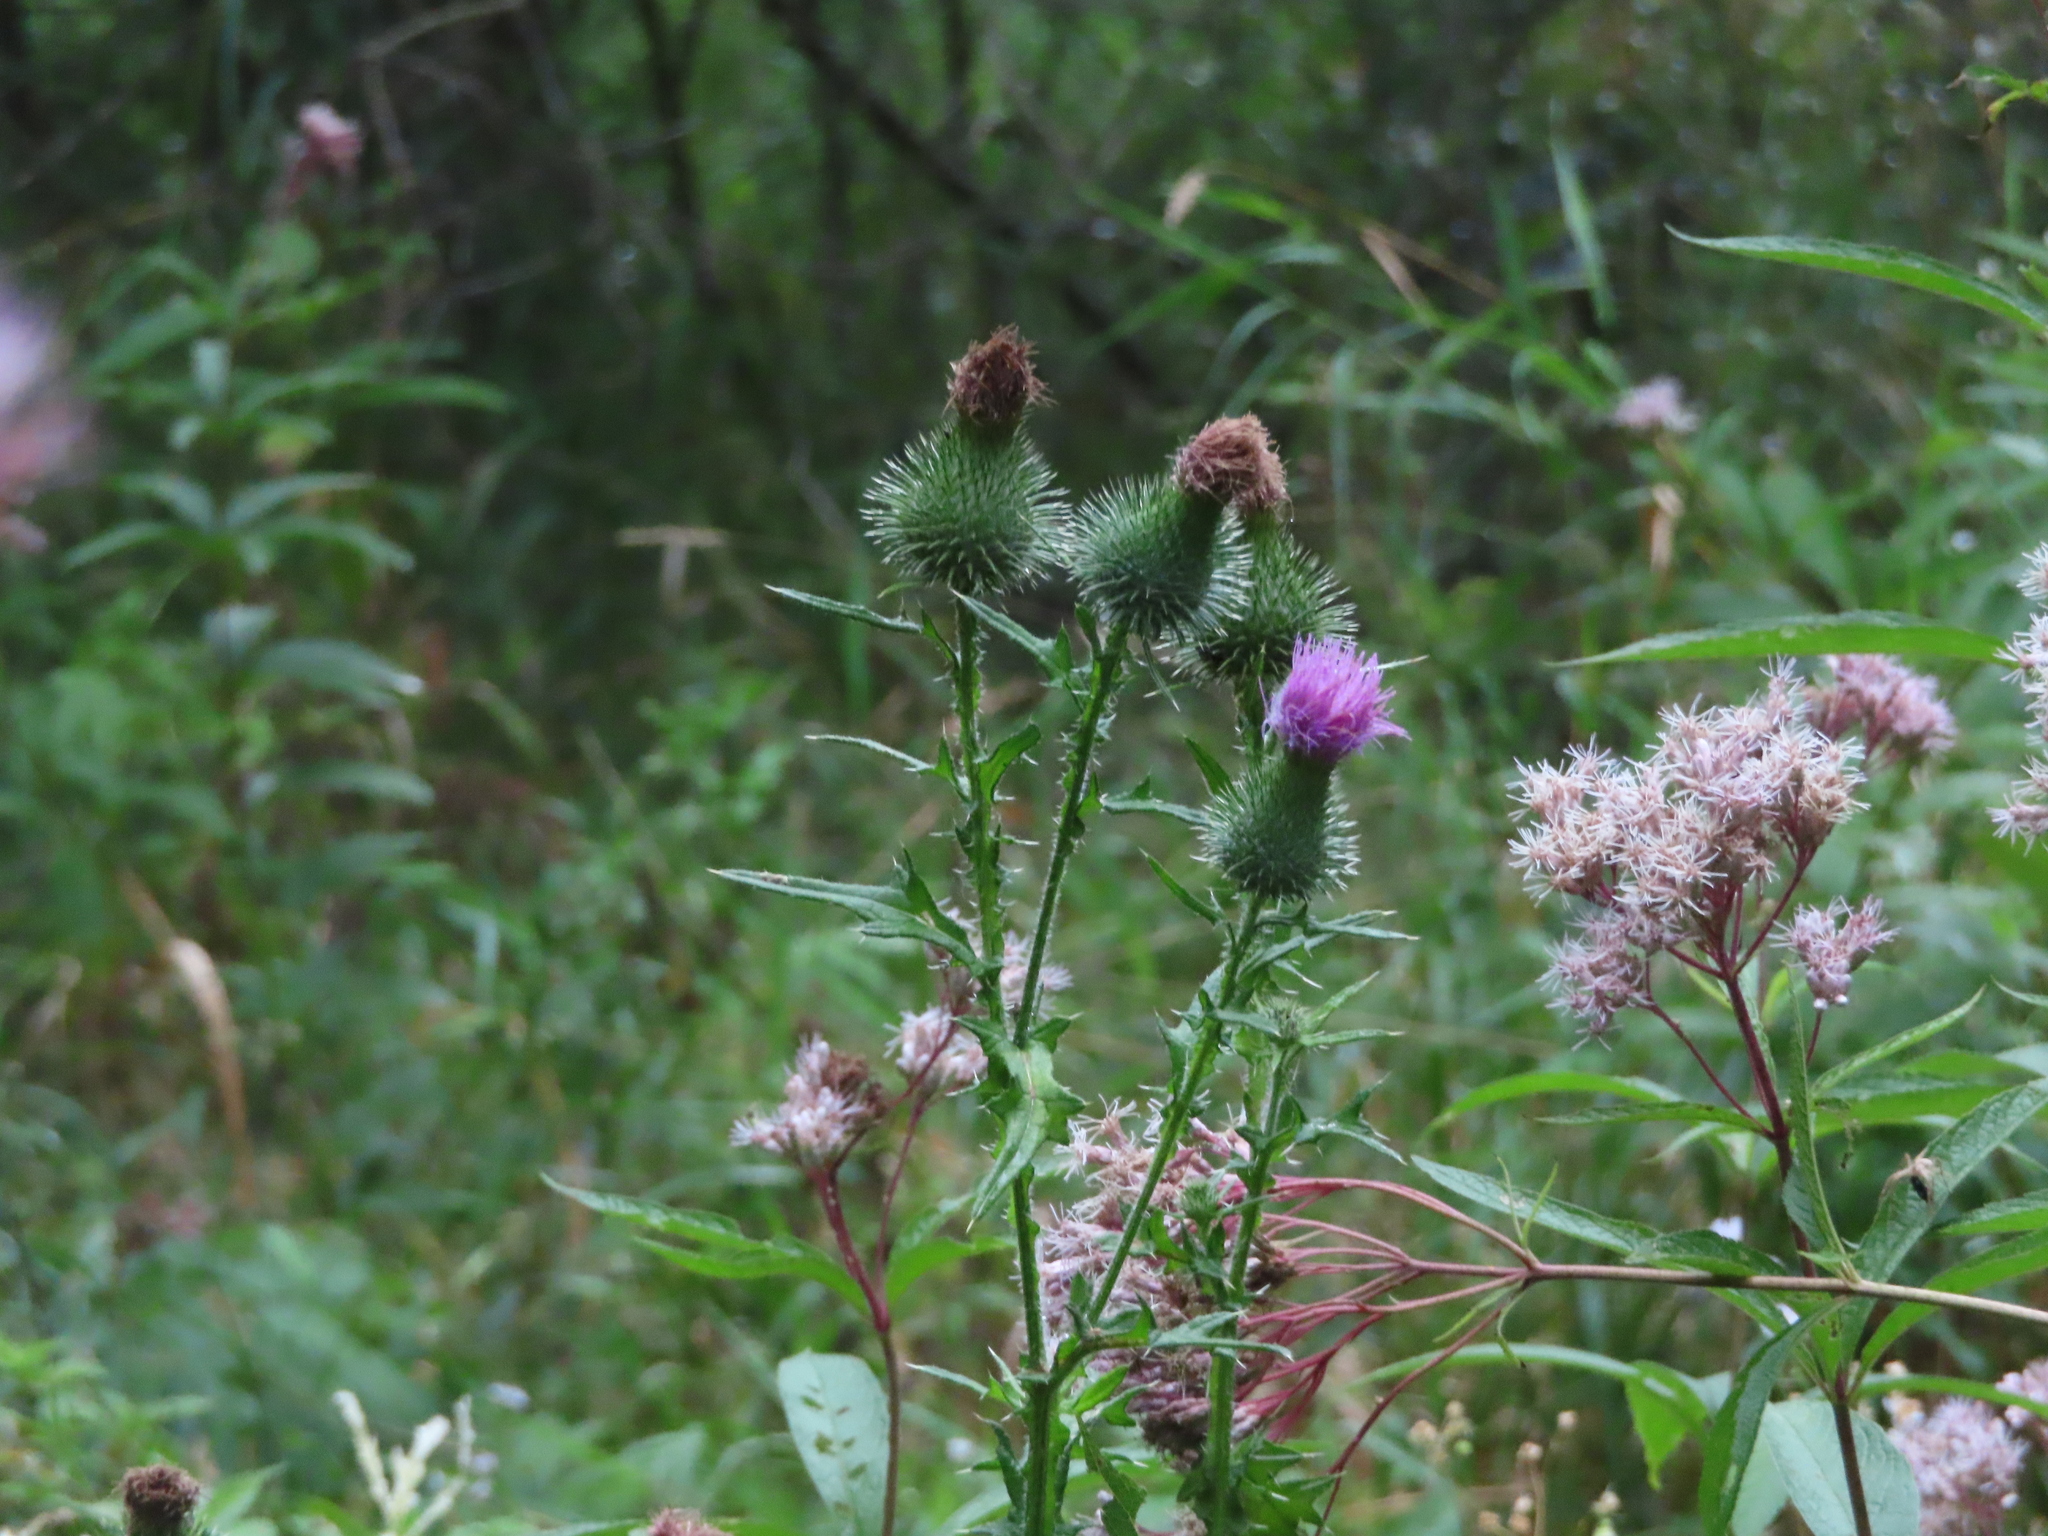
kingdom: Plantae
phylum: Tracheophyta
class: Magnoliopsida
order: Asterales
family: Asteraceae
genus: Cirsium
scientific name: Cirsium vulgare
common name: Bull thistle
